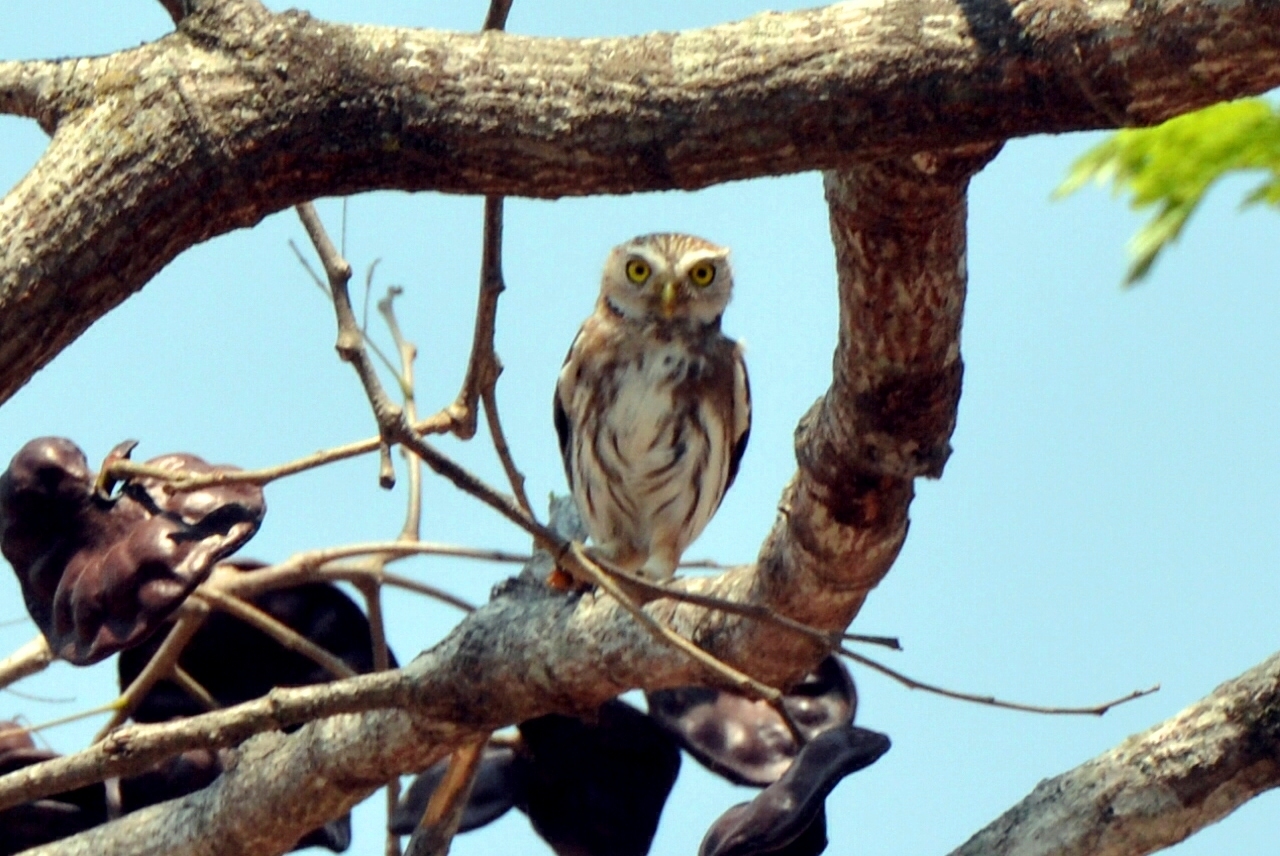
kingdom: Animalia
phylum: Chordata
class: Aves
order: Strigiformes
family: Strigidae
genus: Glaucidium
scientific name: Glaucidium brasilianum
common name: Ferruginous pygmy-owl
